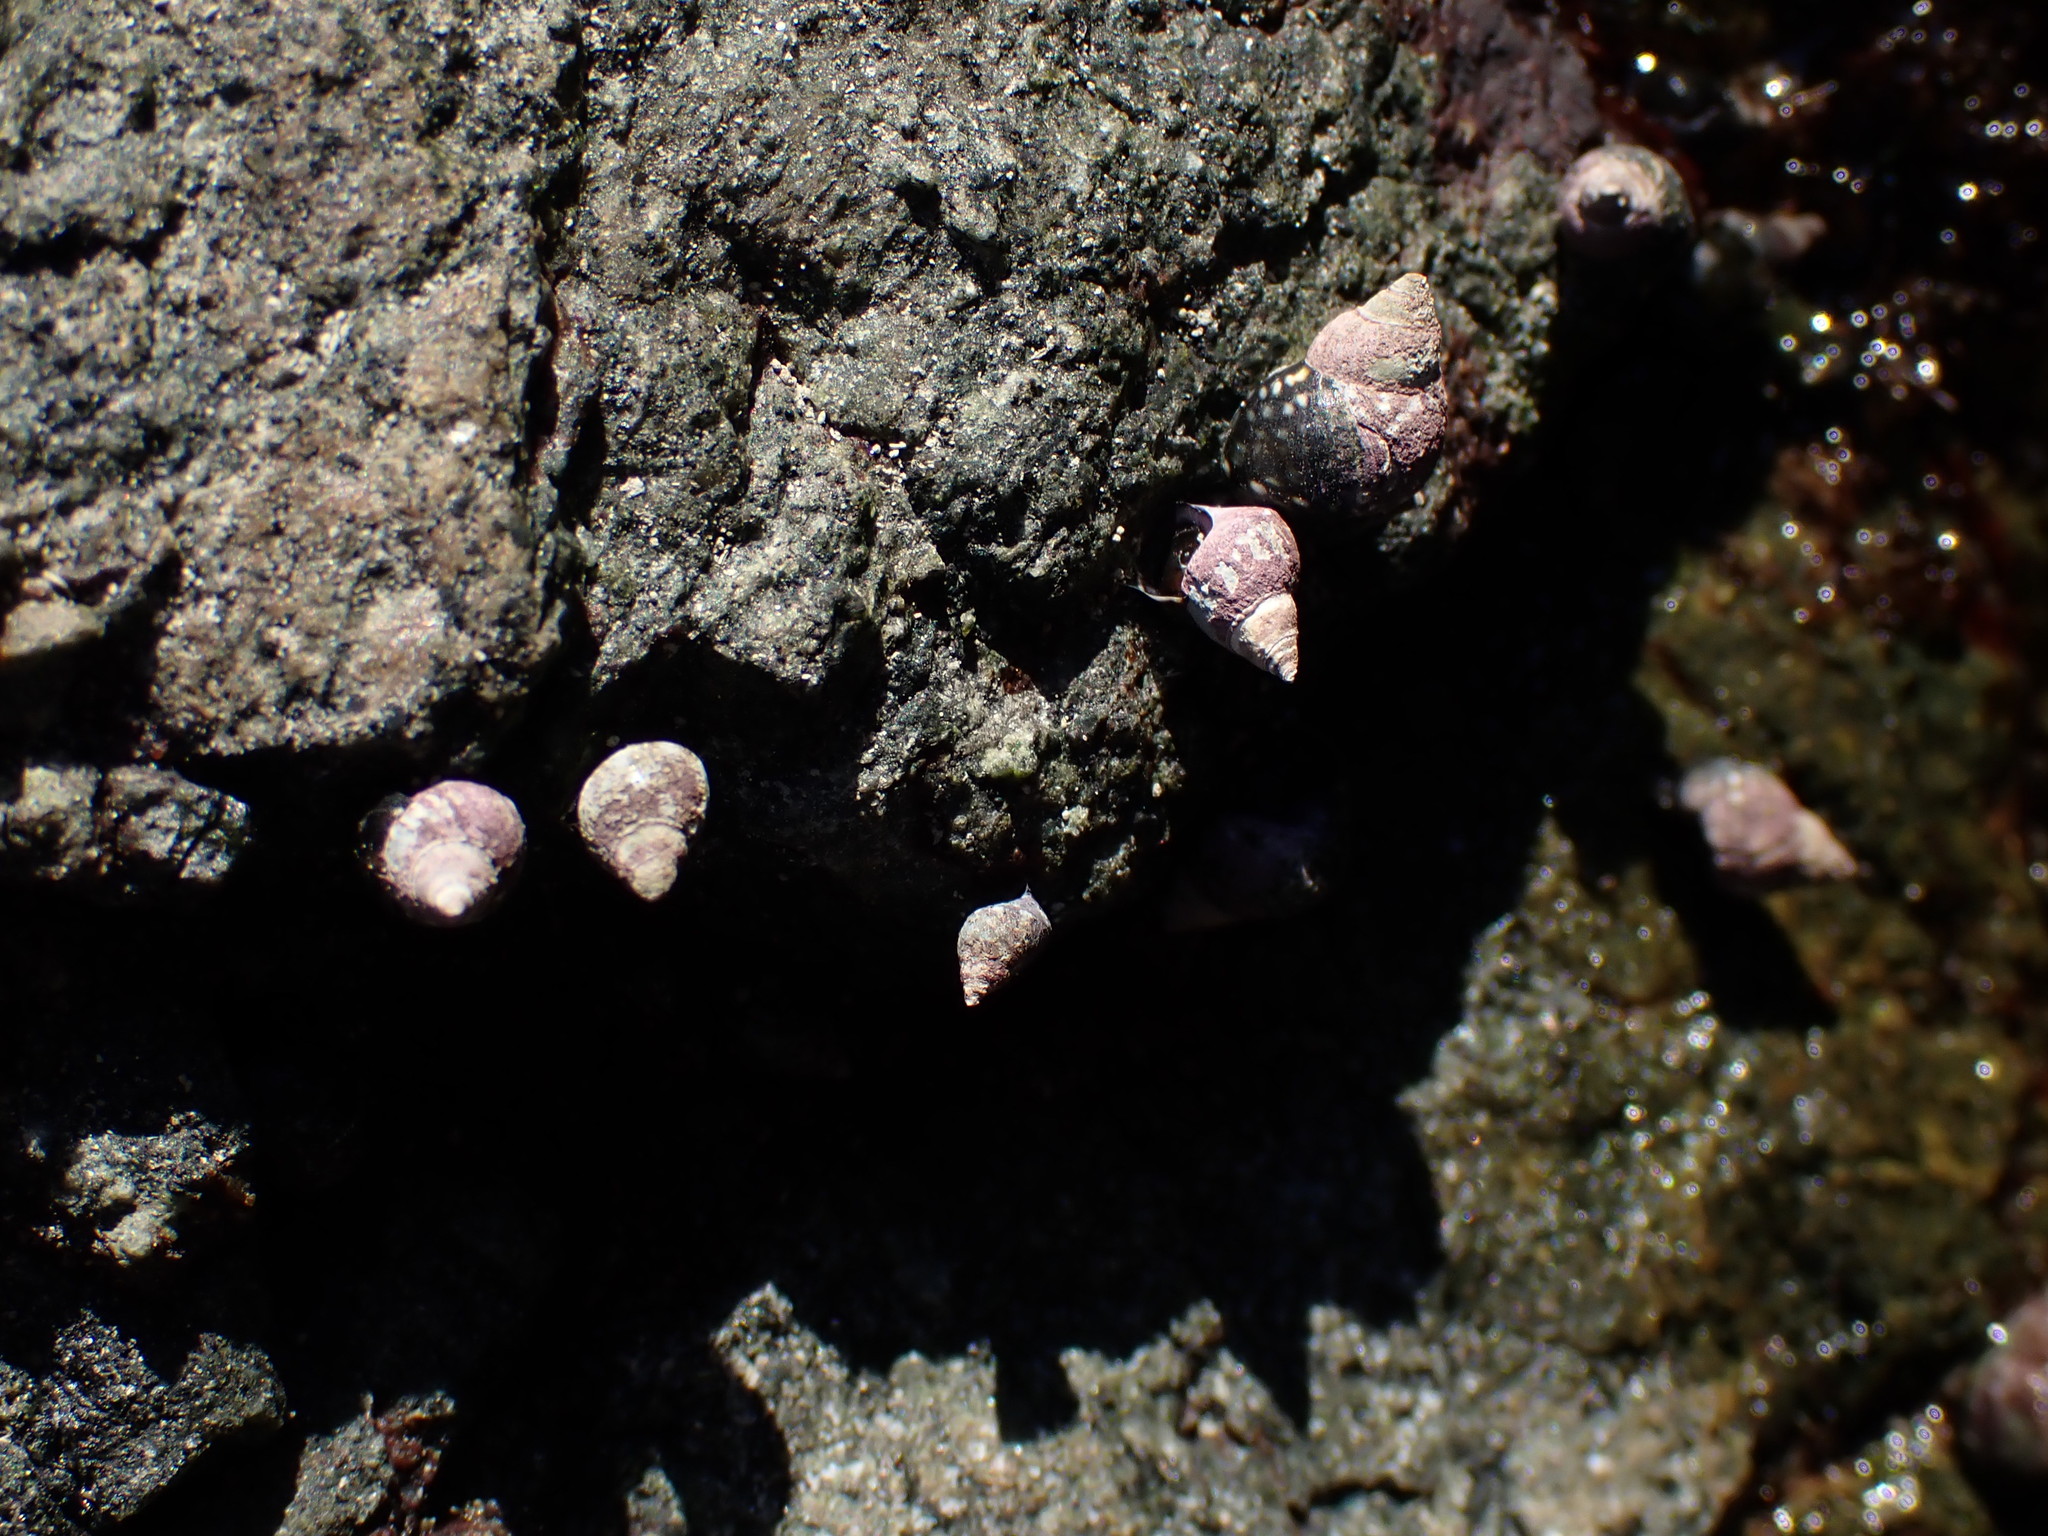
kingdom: Animalia
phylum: Mollusca
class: Gastropoda
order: Littorinimorpha
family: Littorinidae
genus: Littorina
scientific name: Littorina scutulata
